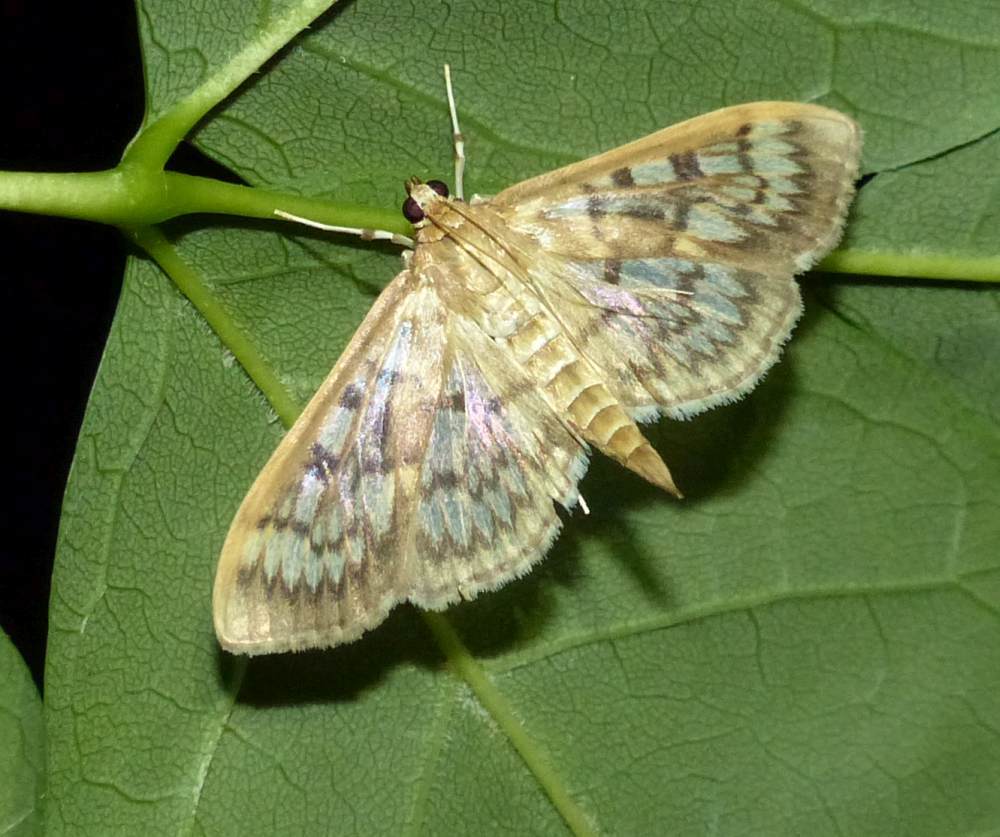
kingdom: Animalia
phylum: Arthropoda
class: Insecta
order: Lepidoptera
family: Crambidae
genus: Herpetogramma
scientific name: Herpetogramma pertextalis
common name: Bold-feathered grass moth
